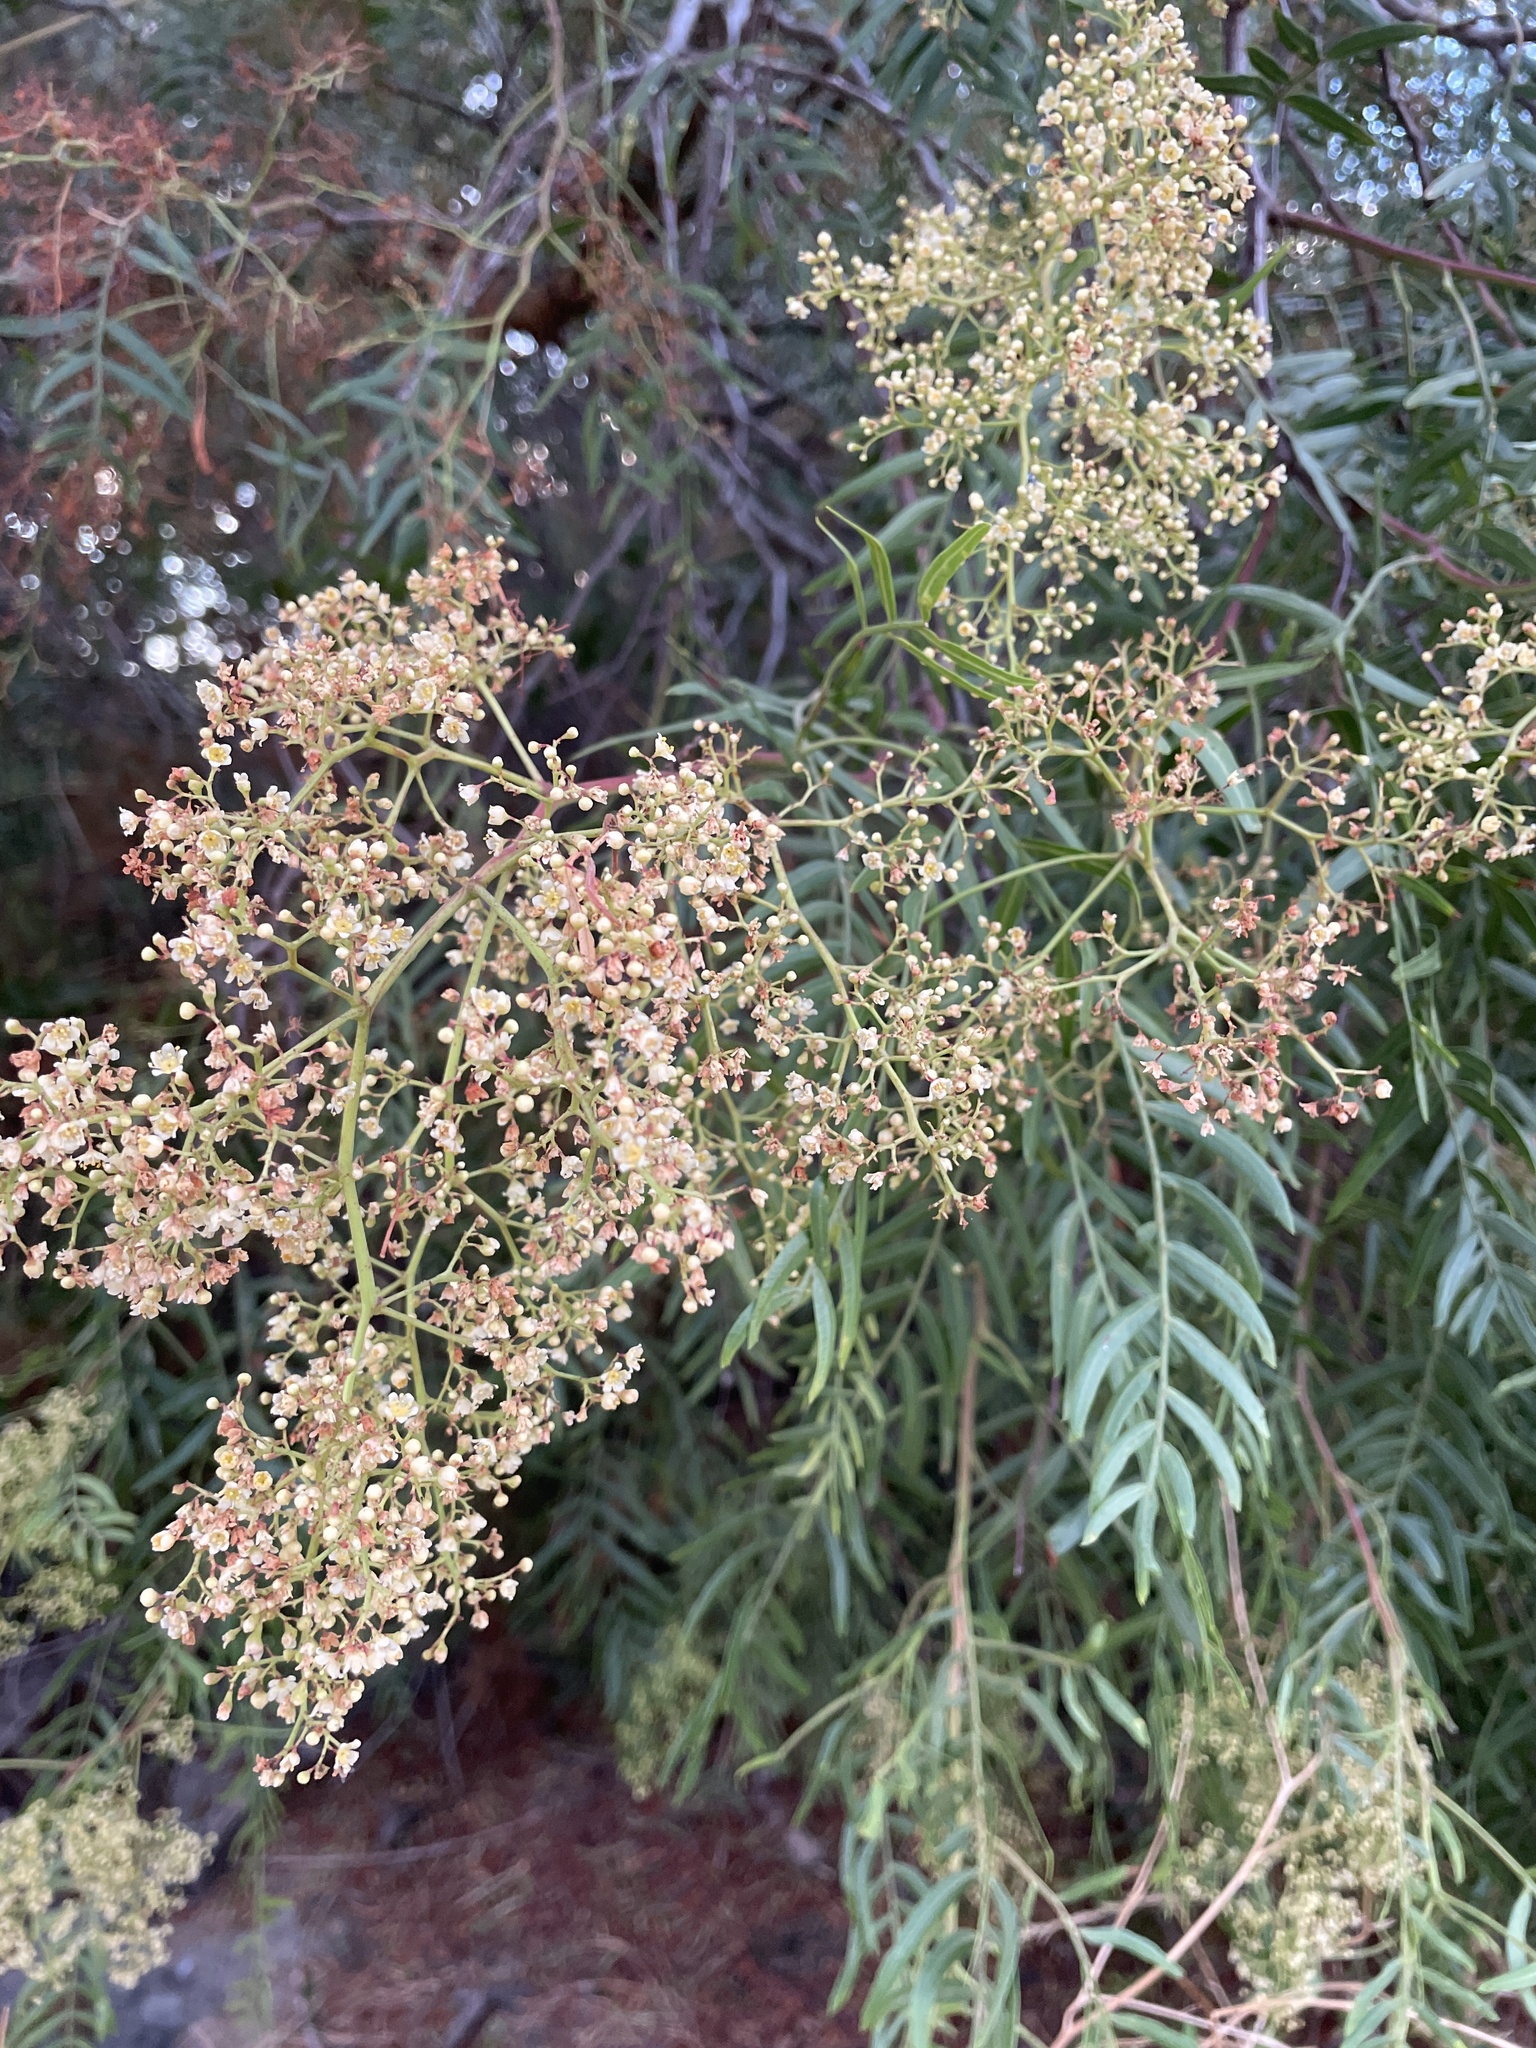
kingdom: Plantae
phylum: Tracheophyta
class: Magnoliopsida
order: Sapindales
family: Anacardiaceae
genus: Schinus
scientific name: Schinus molle
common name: Peruvian peppertree
